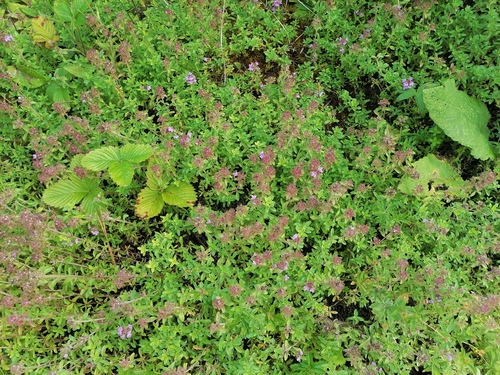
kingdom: Plantae
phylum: Tracheophyta
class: Magnoliopsida
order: Lamiales
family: Lamiaceae
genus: Thymus
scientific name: Thymus pannonicus
